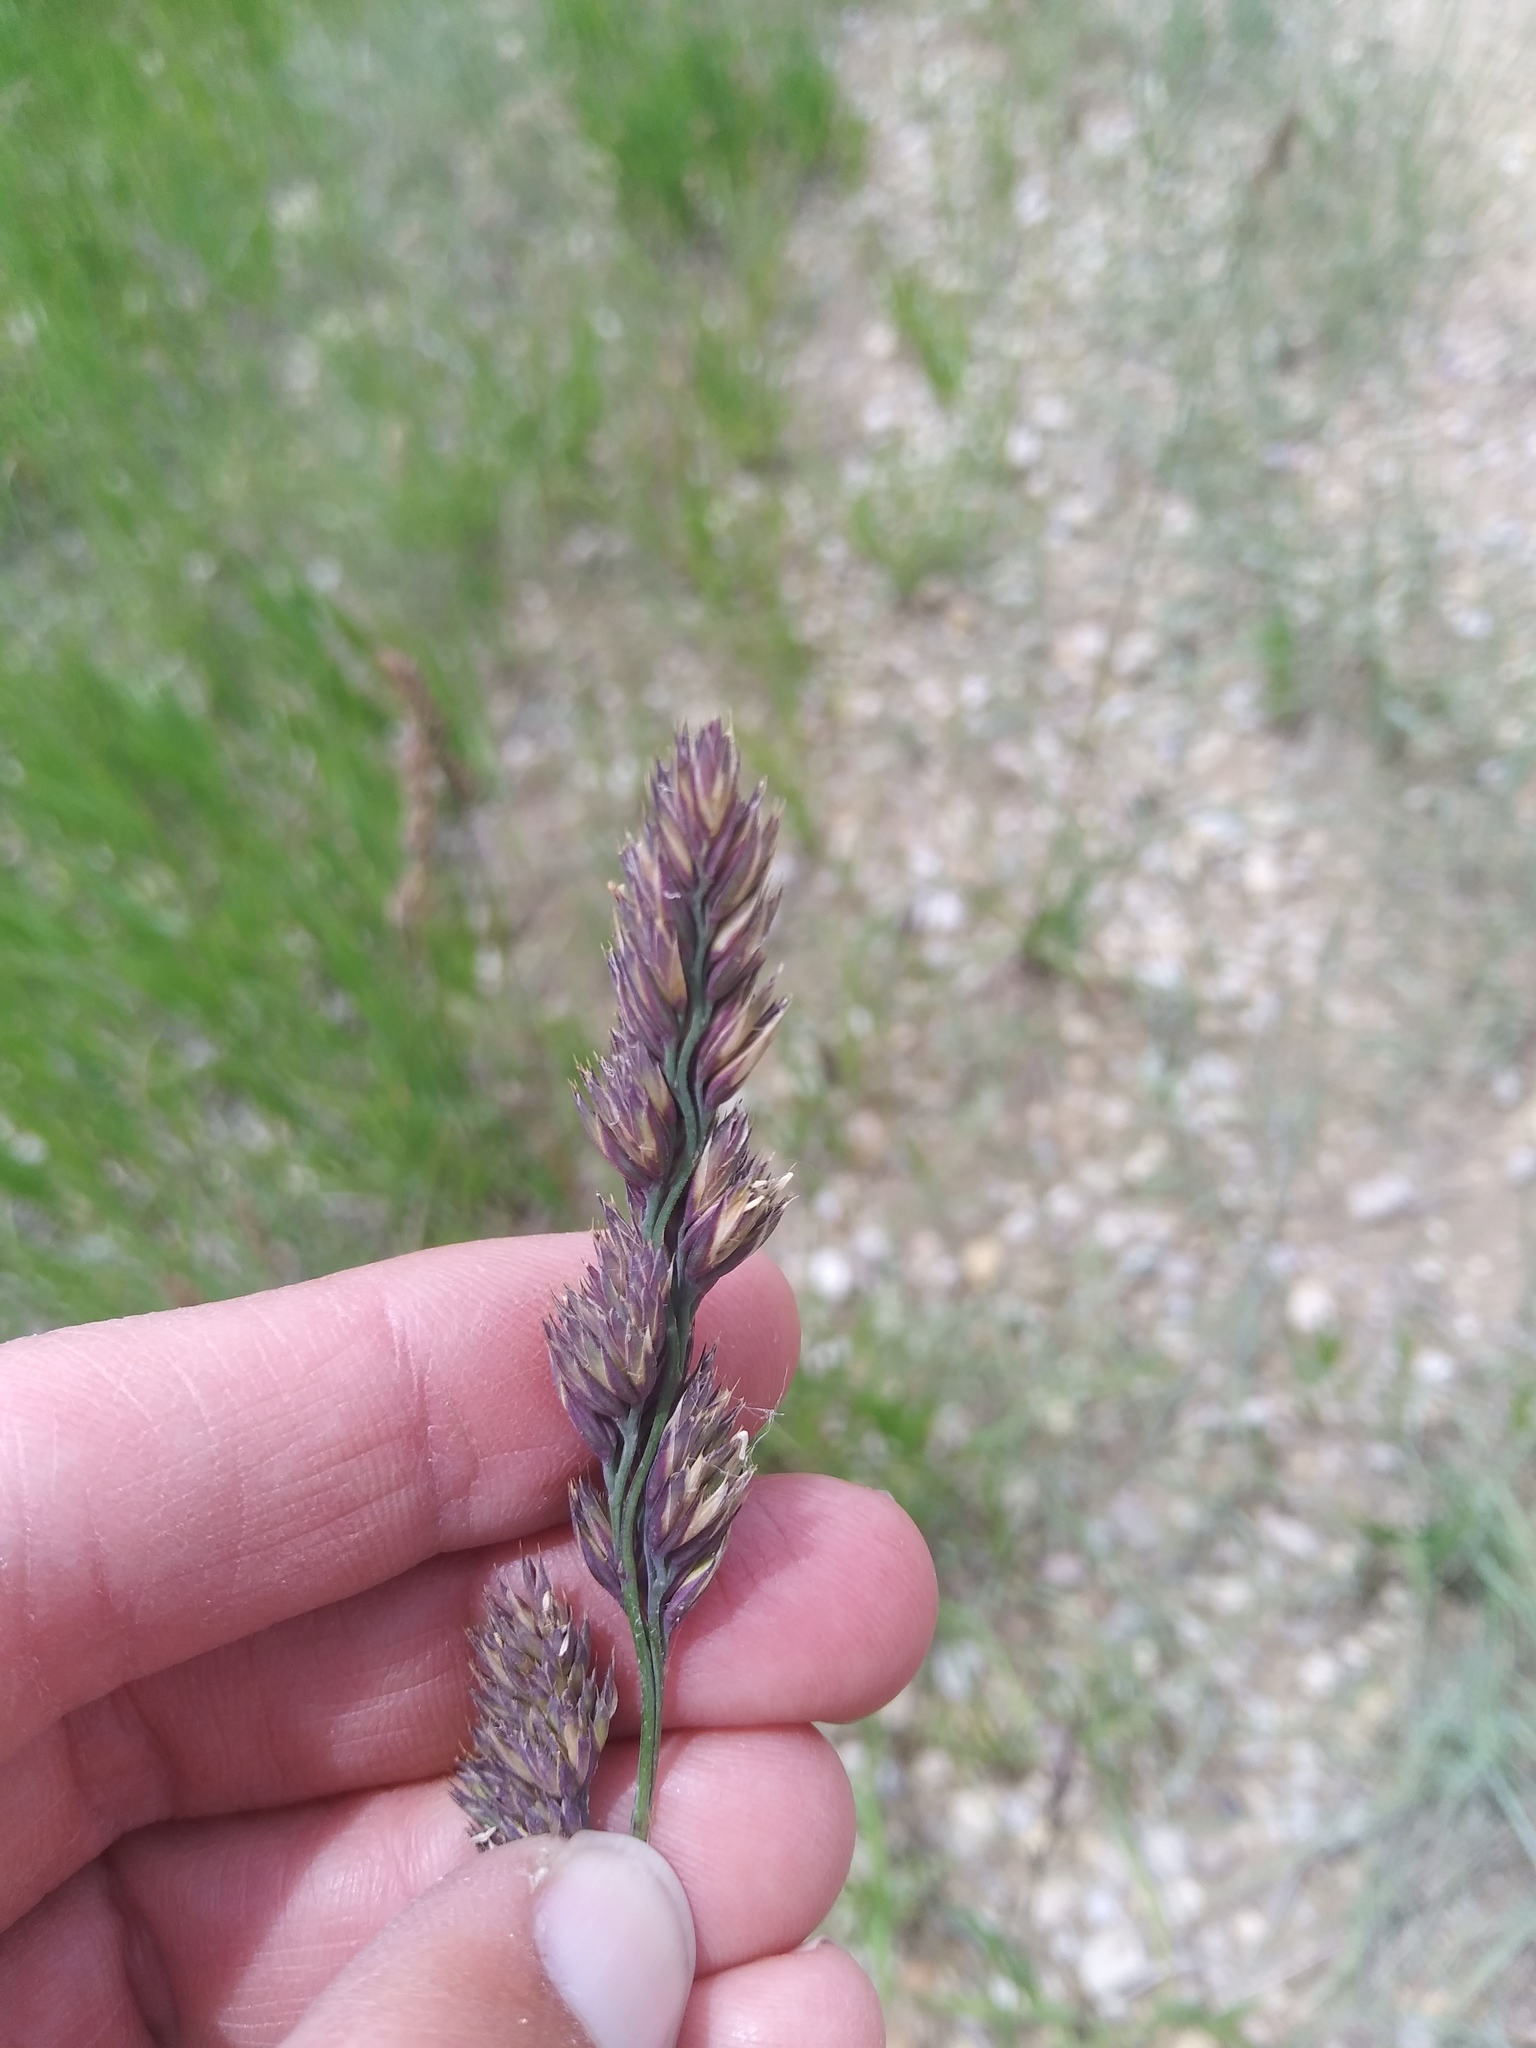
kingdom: Plantae
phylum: Tracheophyta
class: Liliopsida
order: Poales
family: Poaceae
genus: Dactylis
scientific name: Dactylis glomerata
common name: Orchardgrass
